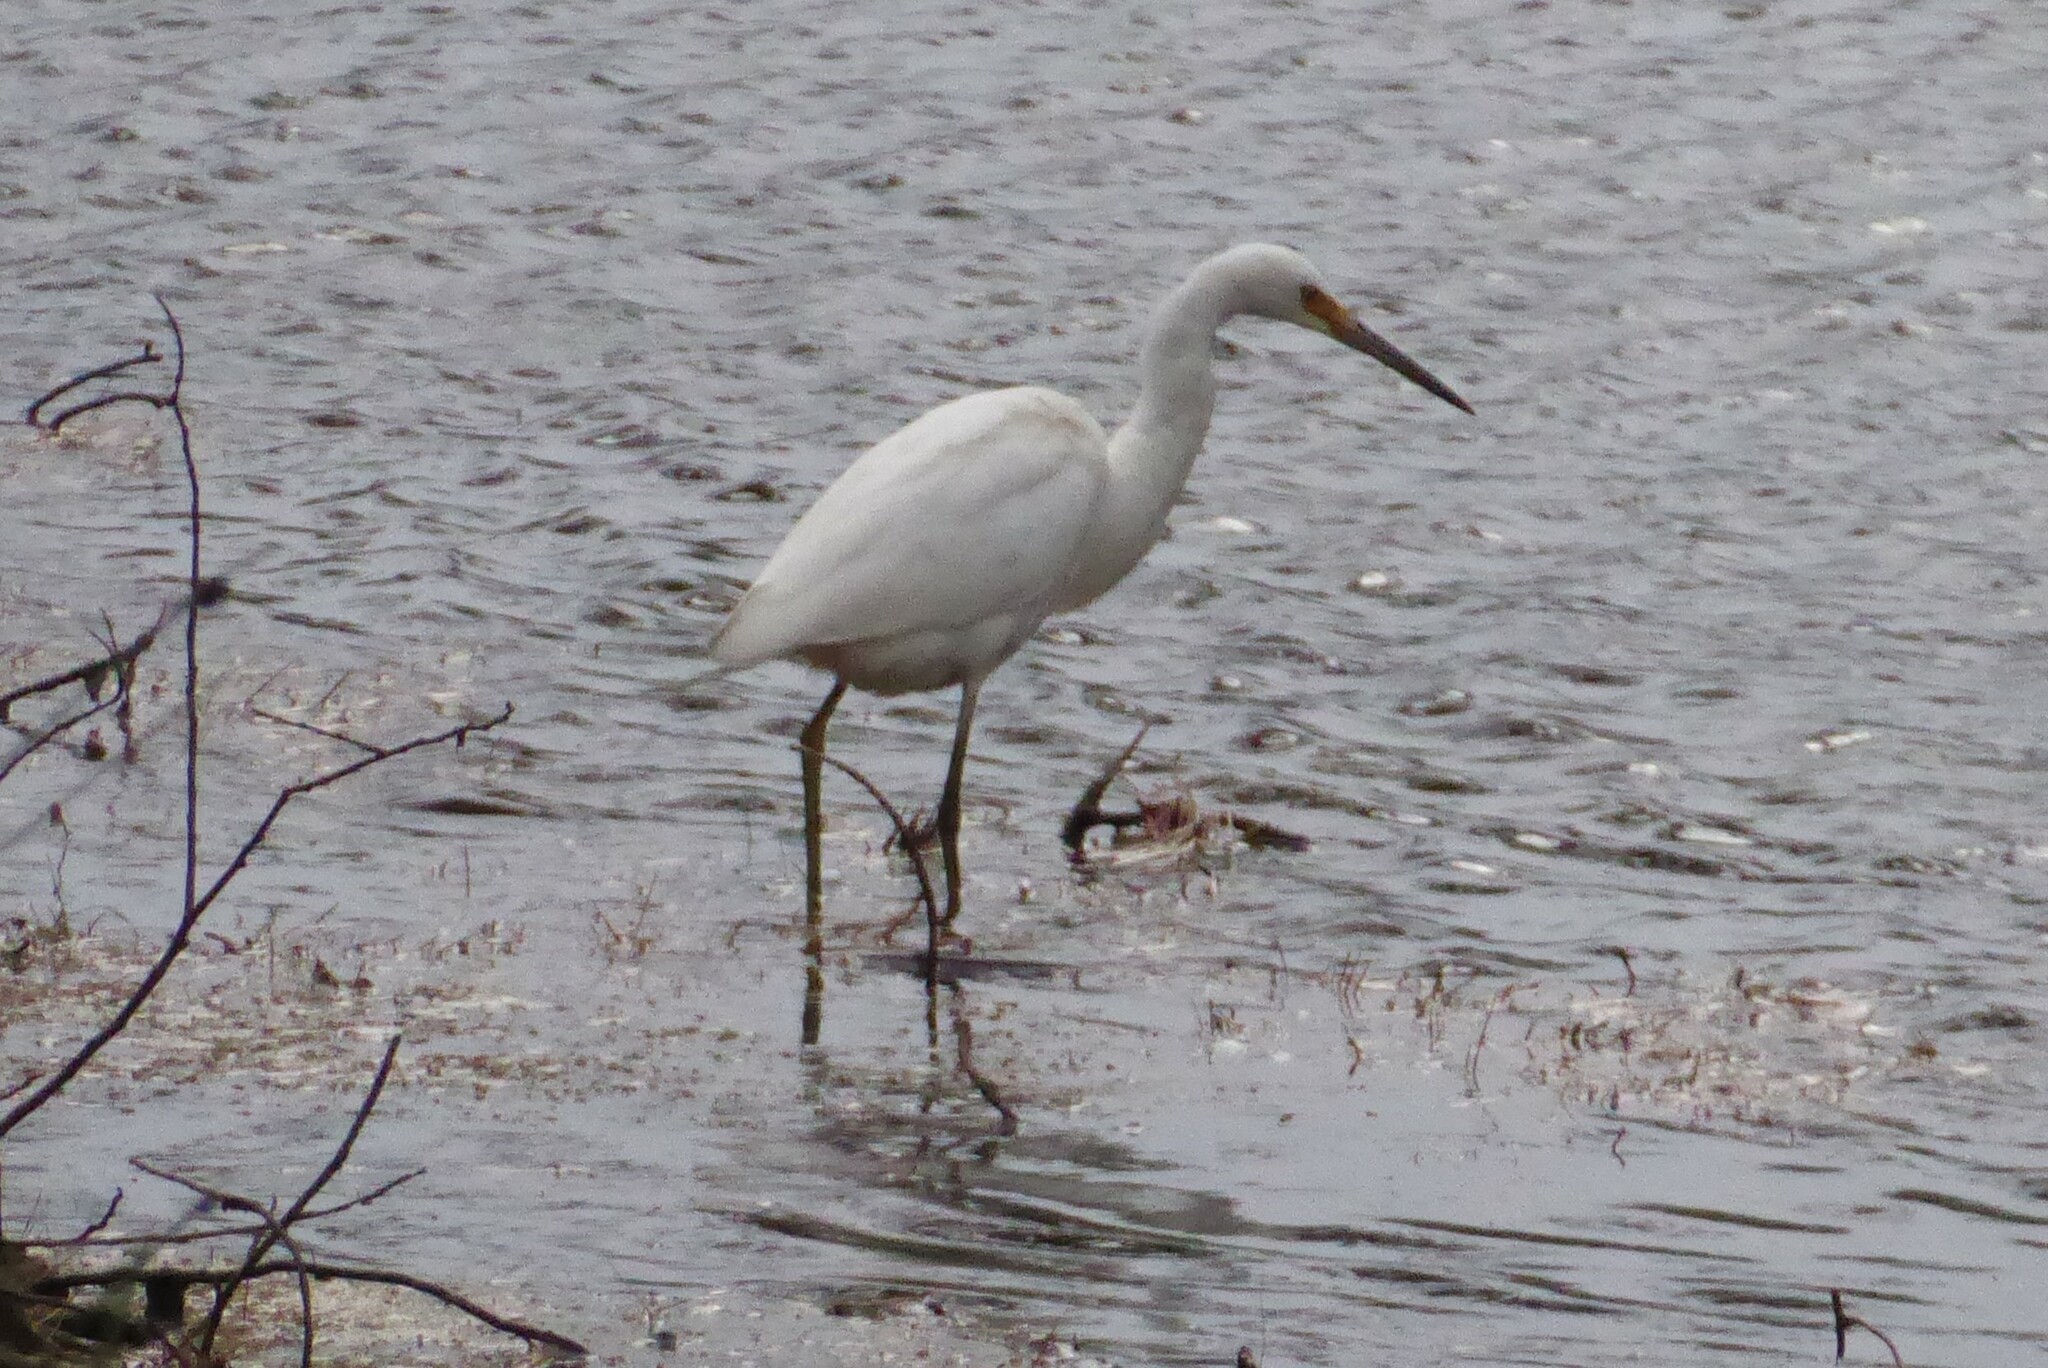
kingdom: Animalia
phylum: Chordata
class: Aves
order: Pelecaniformes
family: Ardeidae
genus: Egretta
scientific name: Egretta garzetta
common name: Little egret
